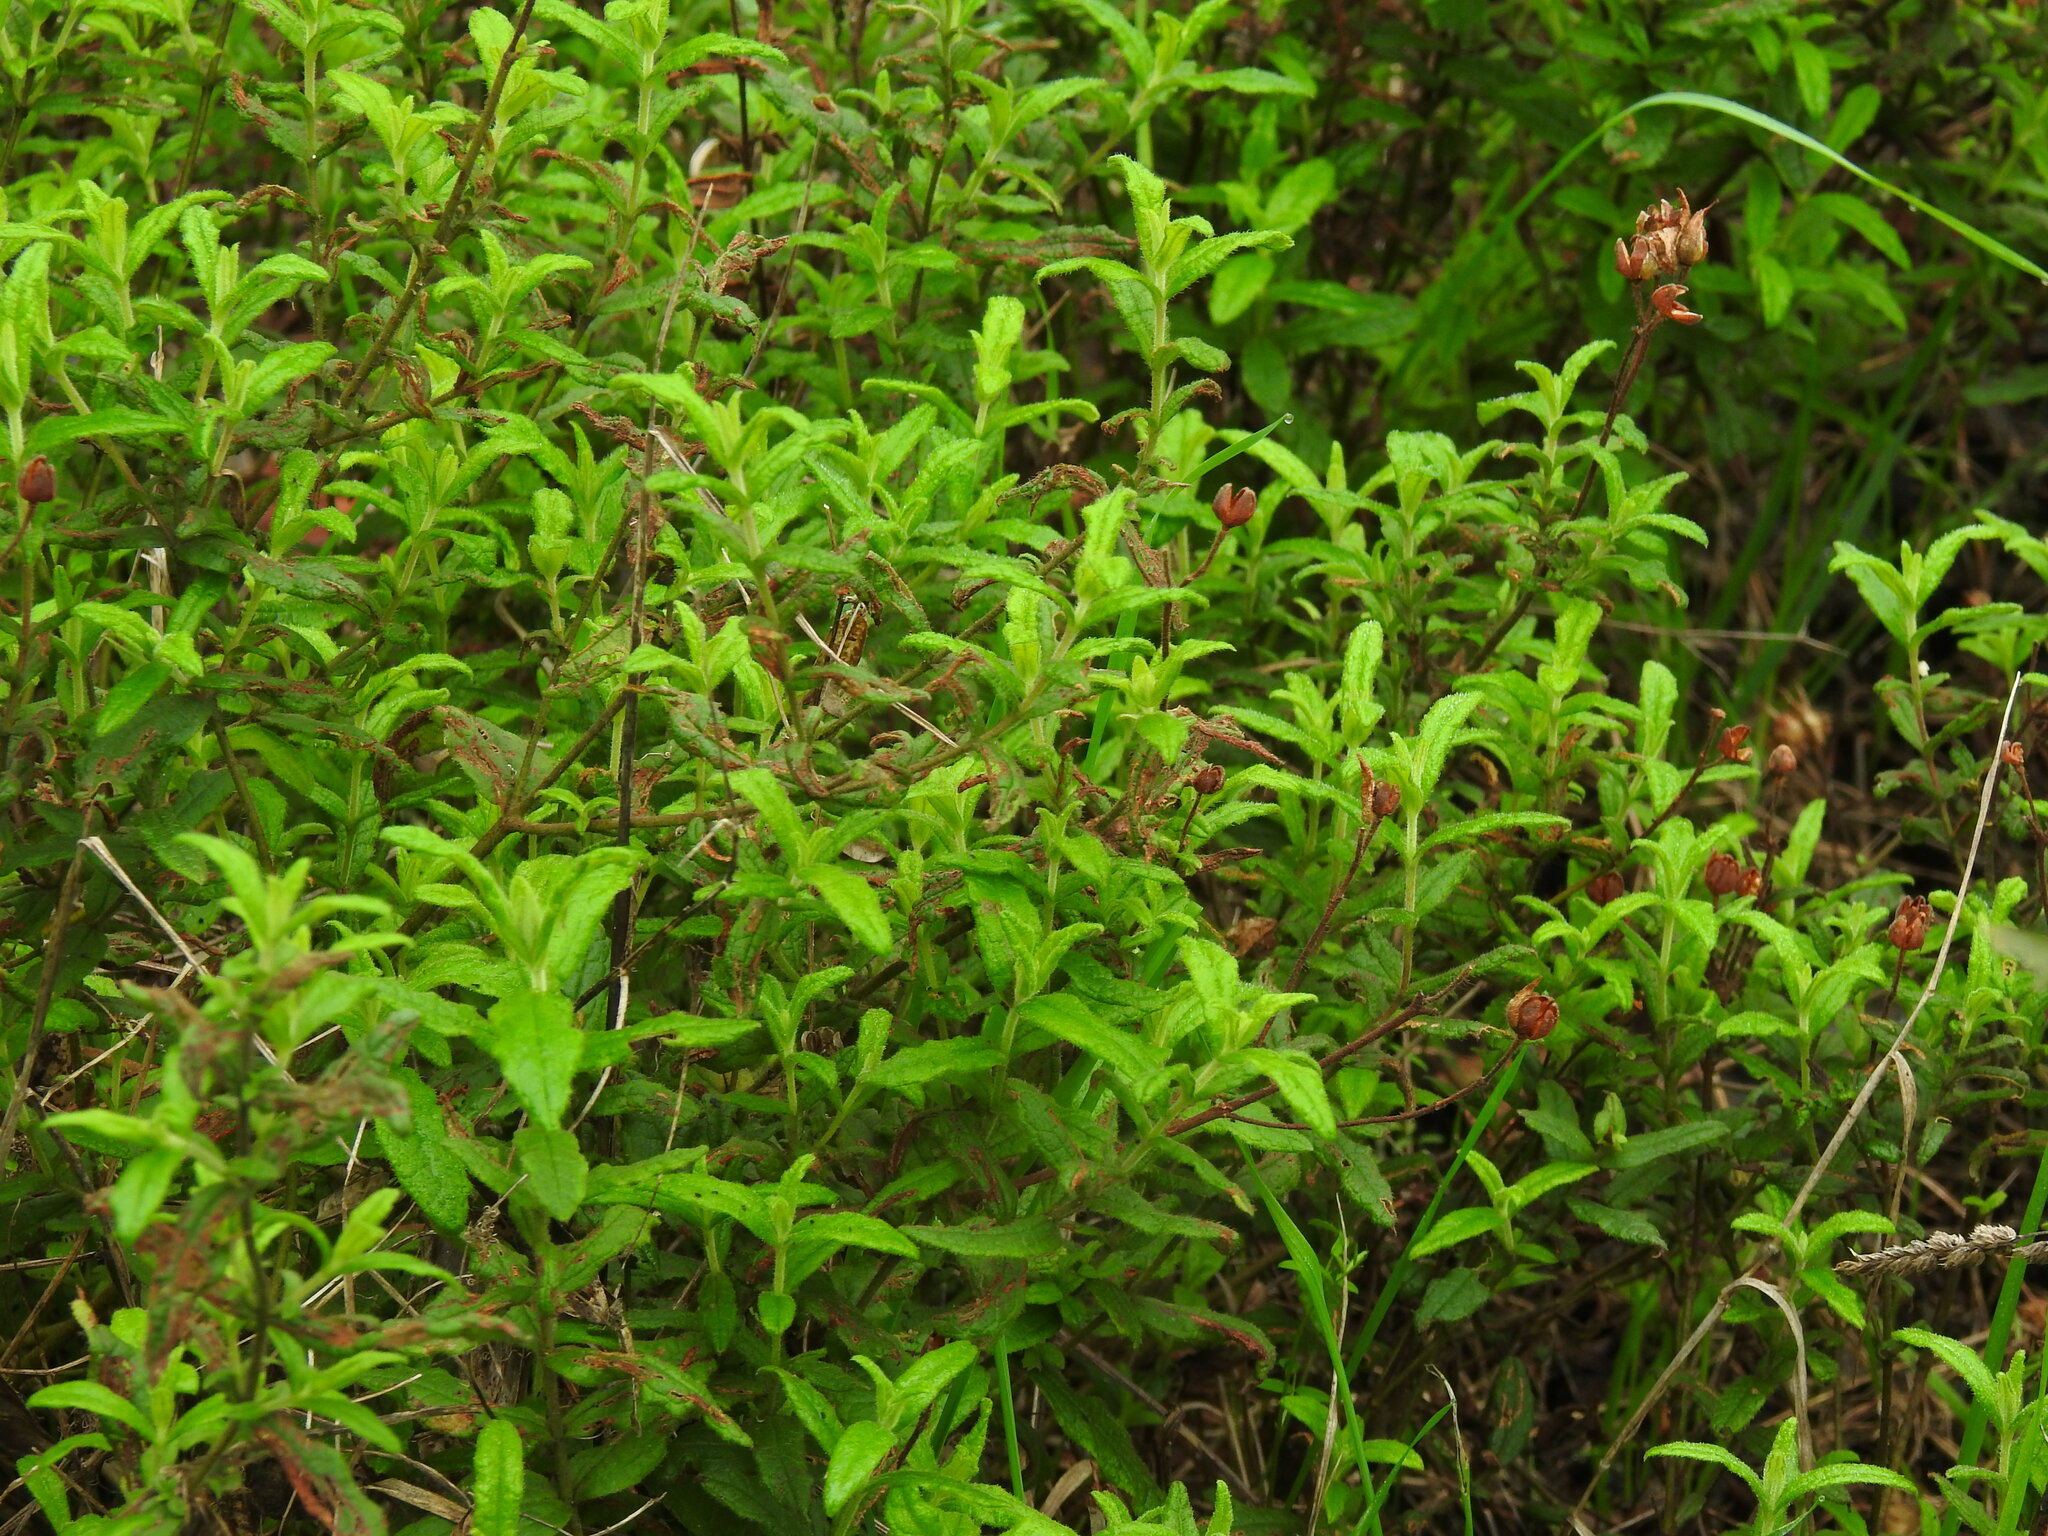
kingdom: Plantae
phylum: Tracheophyta
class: Magnoliopsida
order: Malvales
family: Cistaceae
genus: Cistus
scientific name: Cistus inflatus
